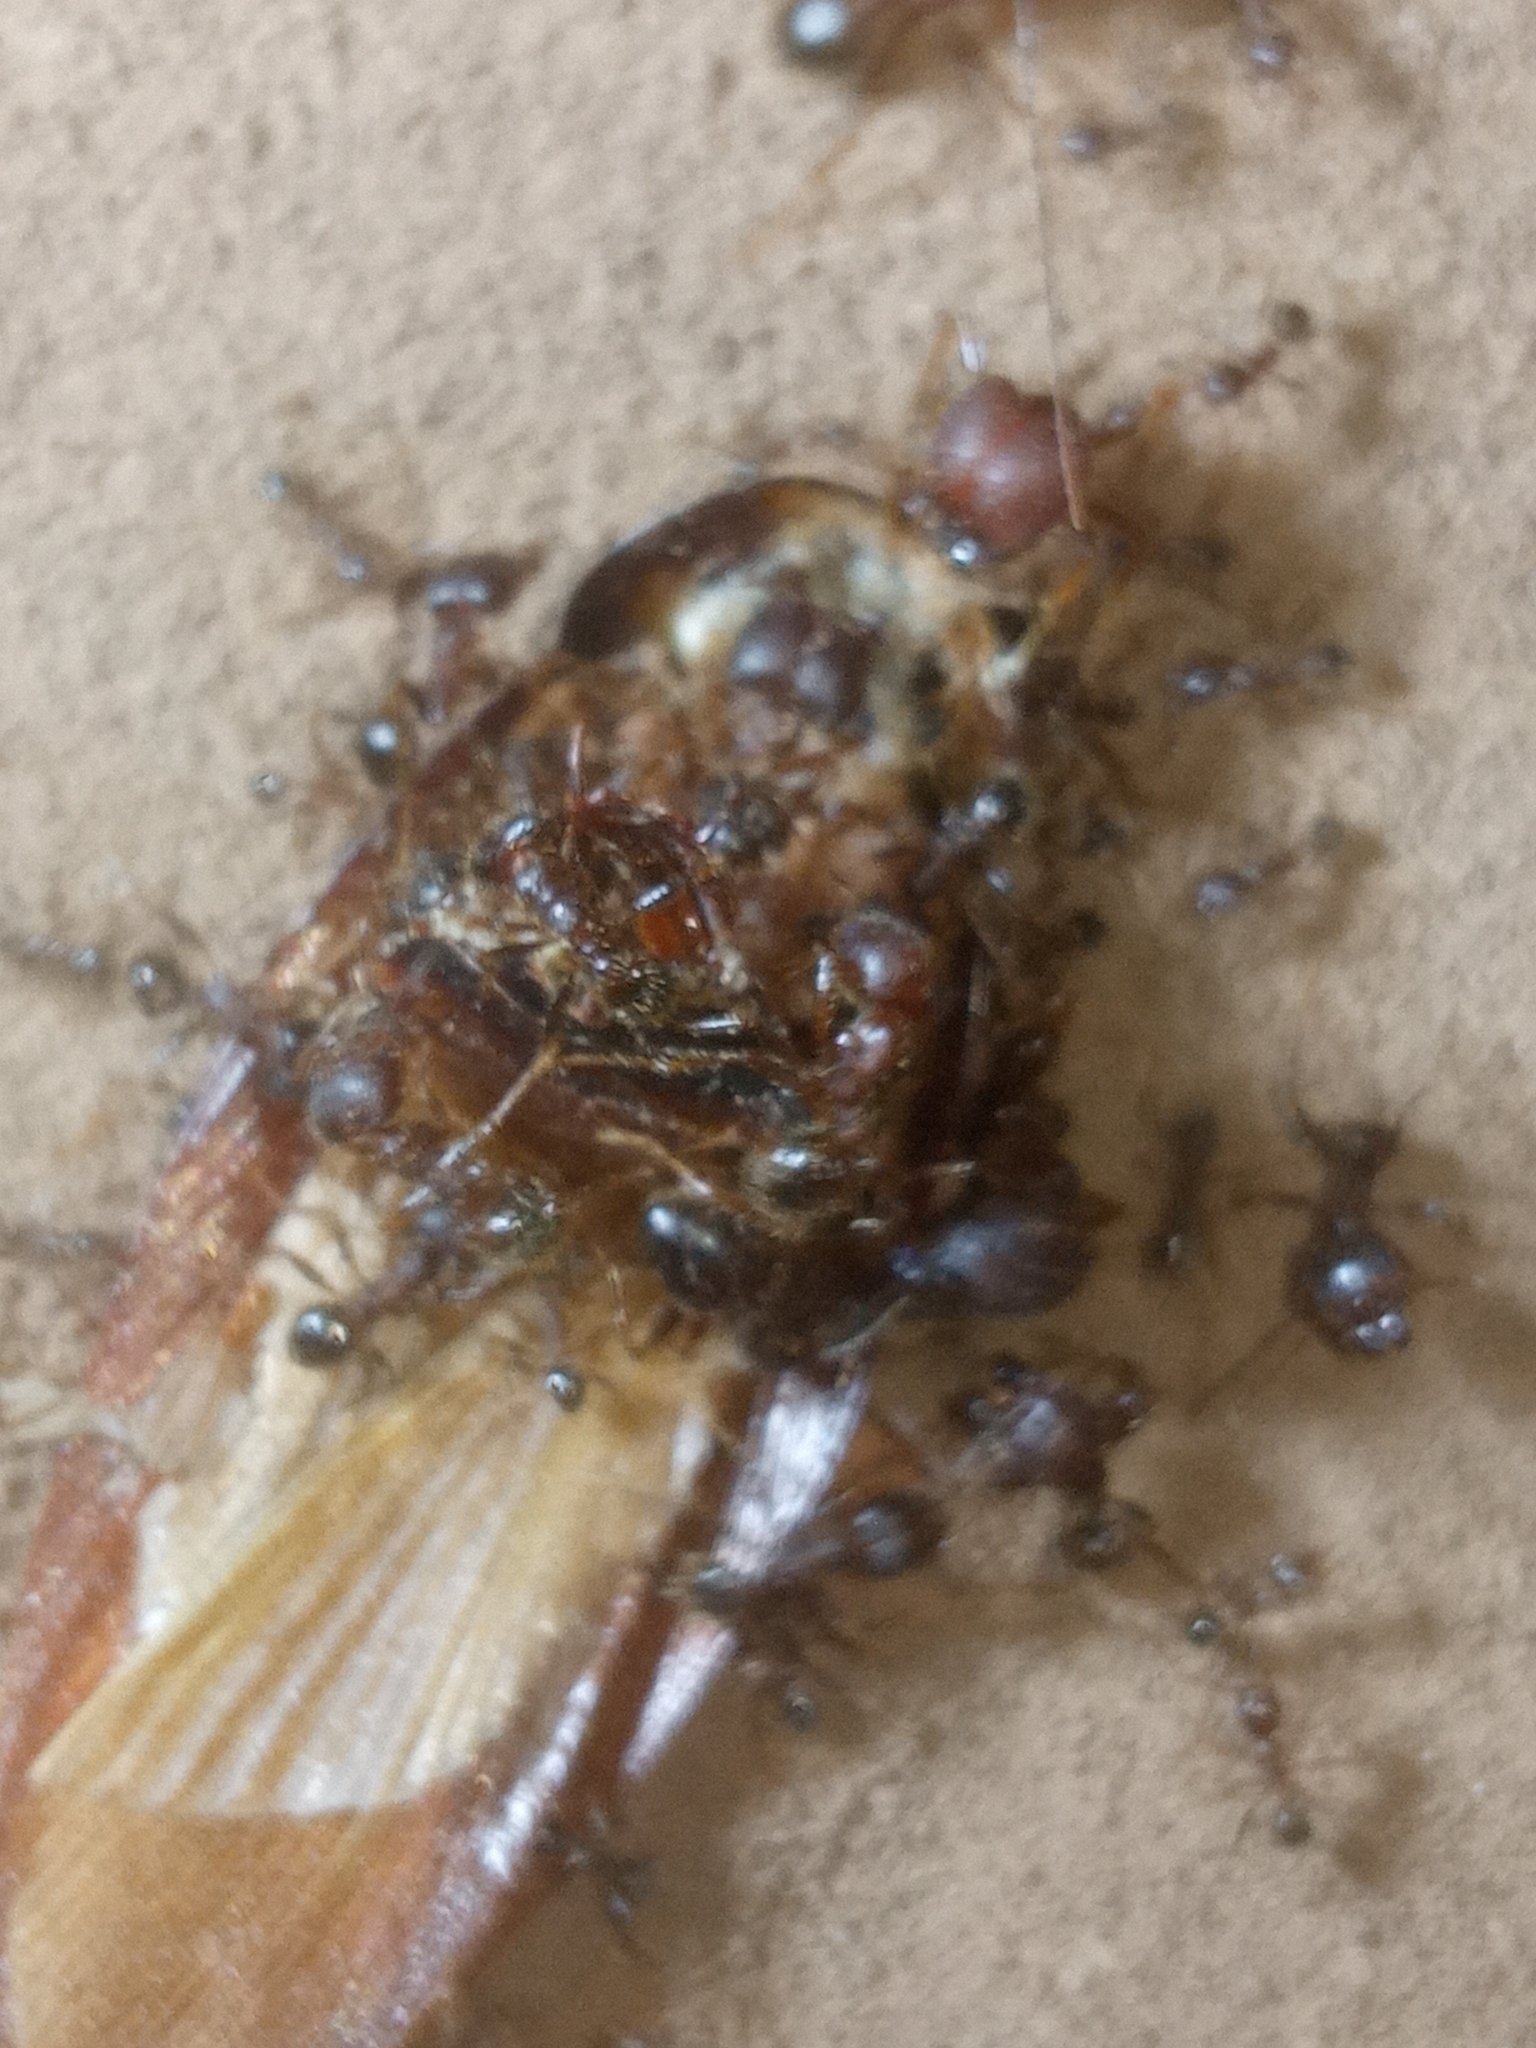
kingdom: Animalia
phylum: Arthropoda
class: Insecta
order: Hymenoptera
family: Formicidae
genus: Pheidole
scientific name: Pheidole obtusospinosa
